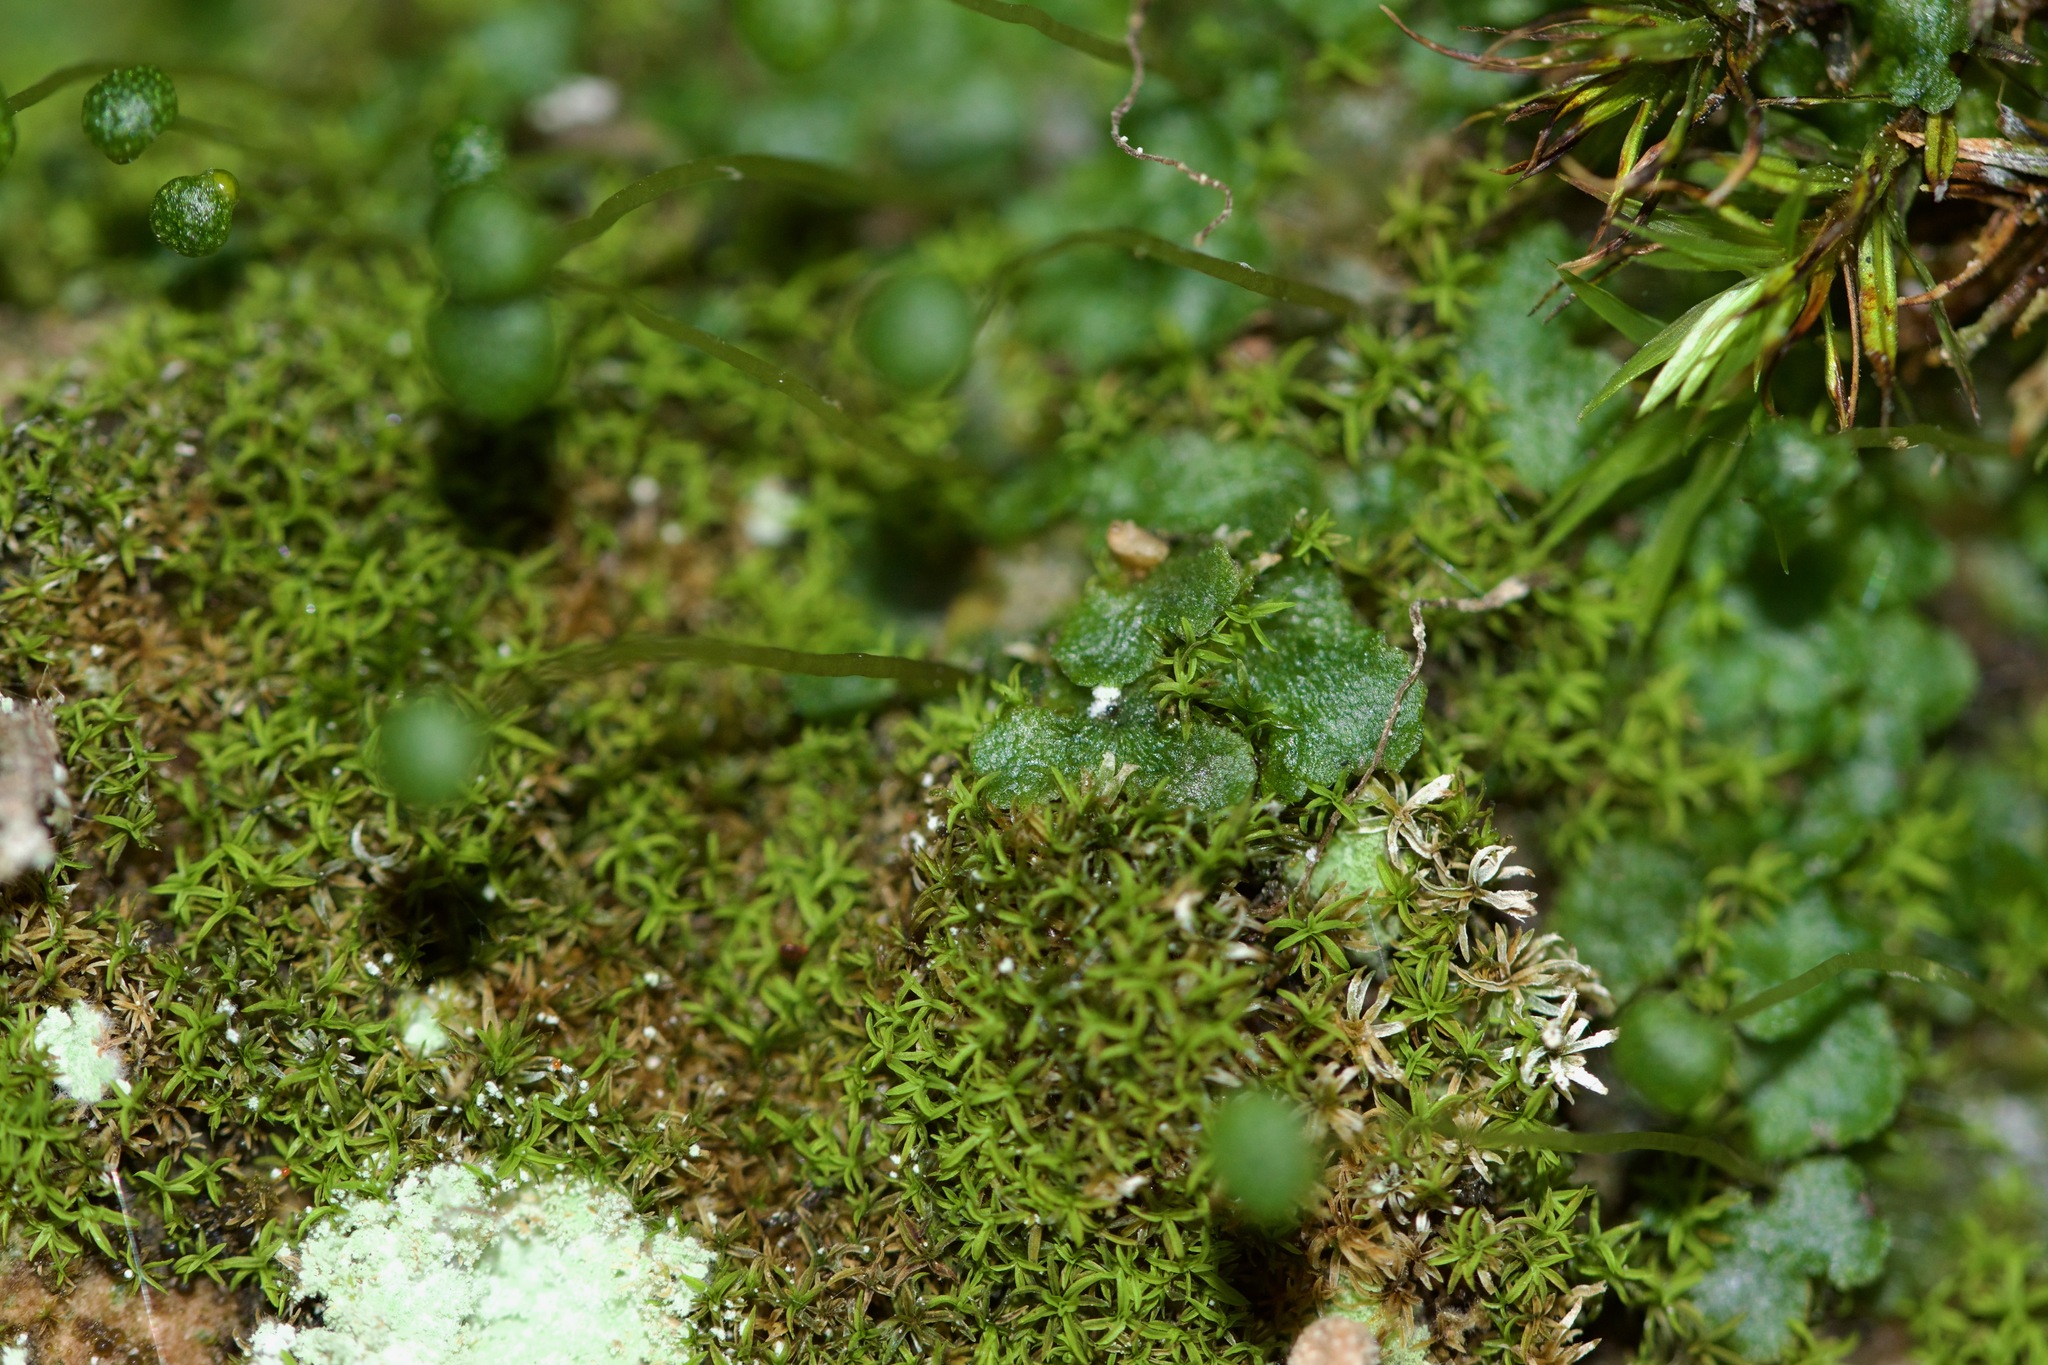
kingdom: Plantae
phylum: Marchantiophyta
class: Marchantiopsida
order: Marchantiales
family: Aytoniaceae
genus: Mannia
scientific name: Mannia triandra
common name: Field macewort
